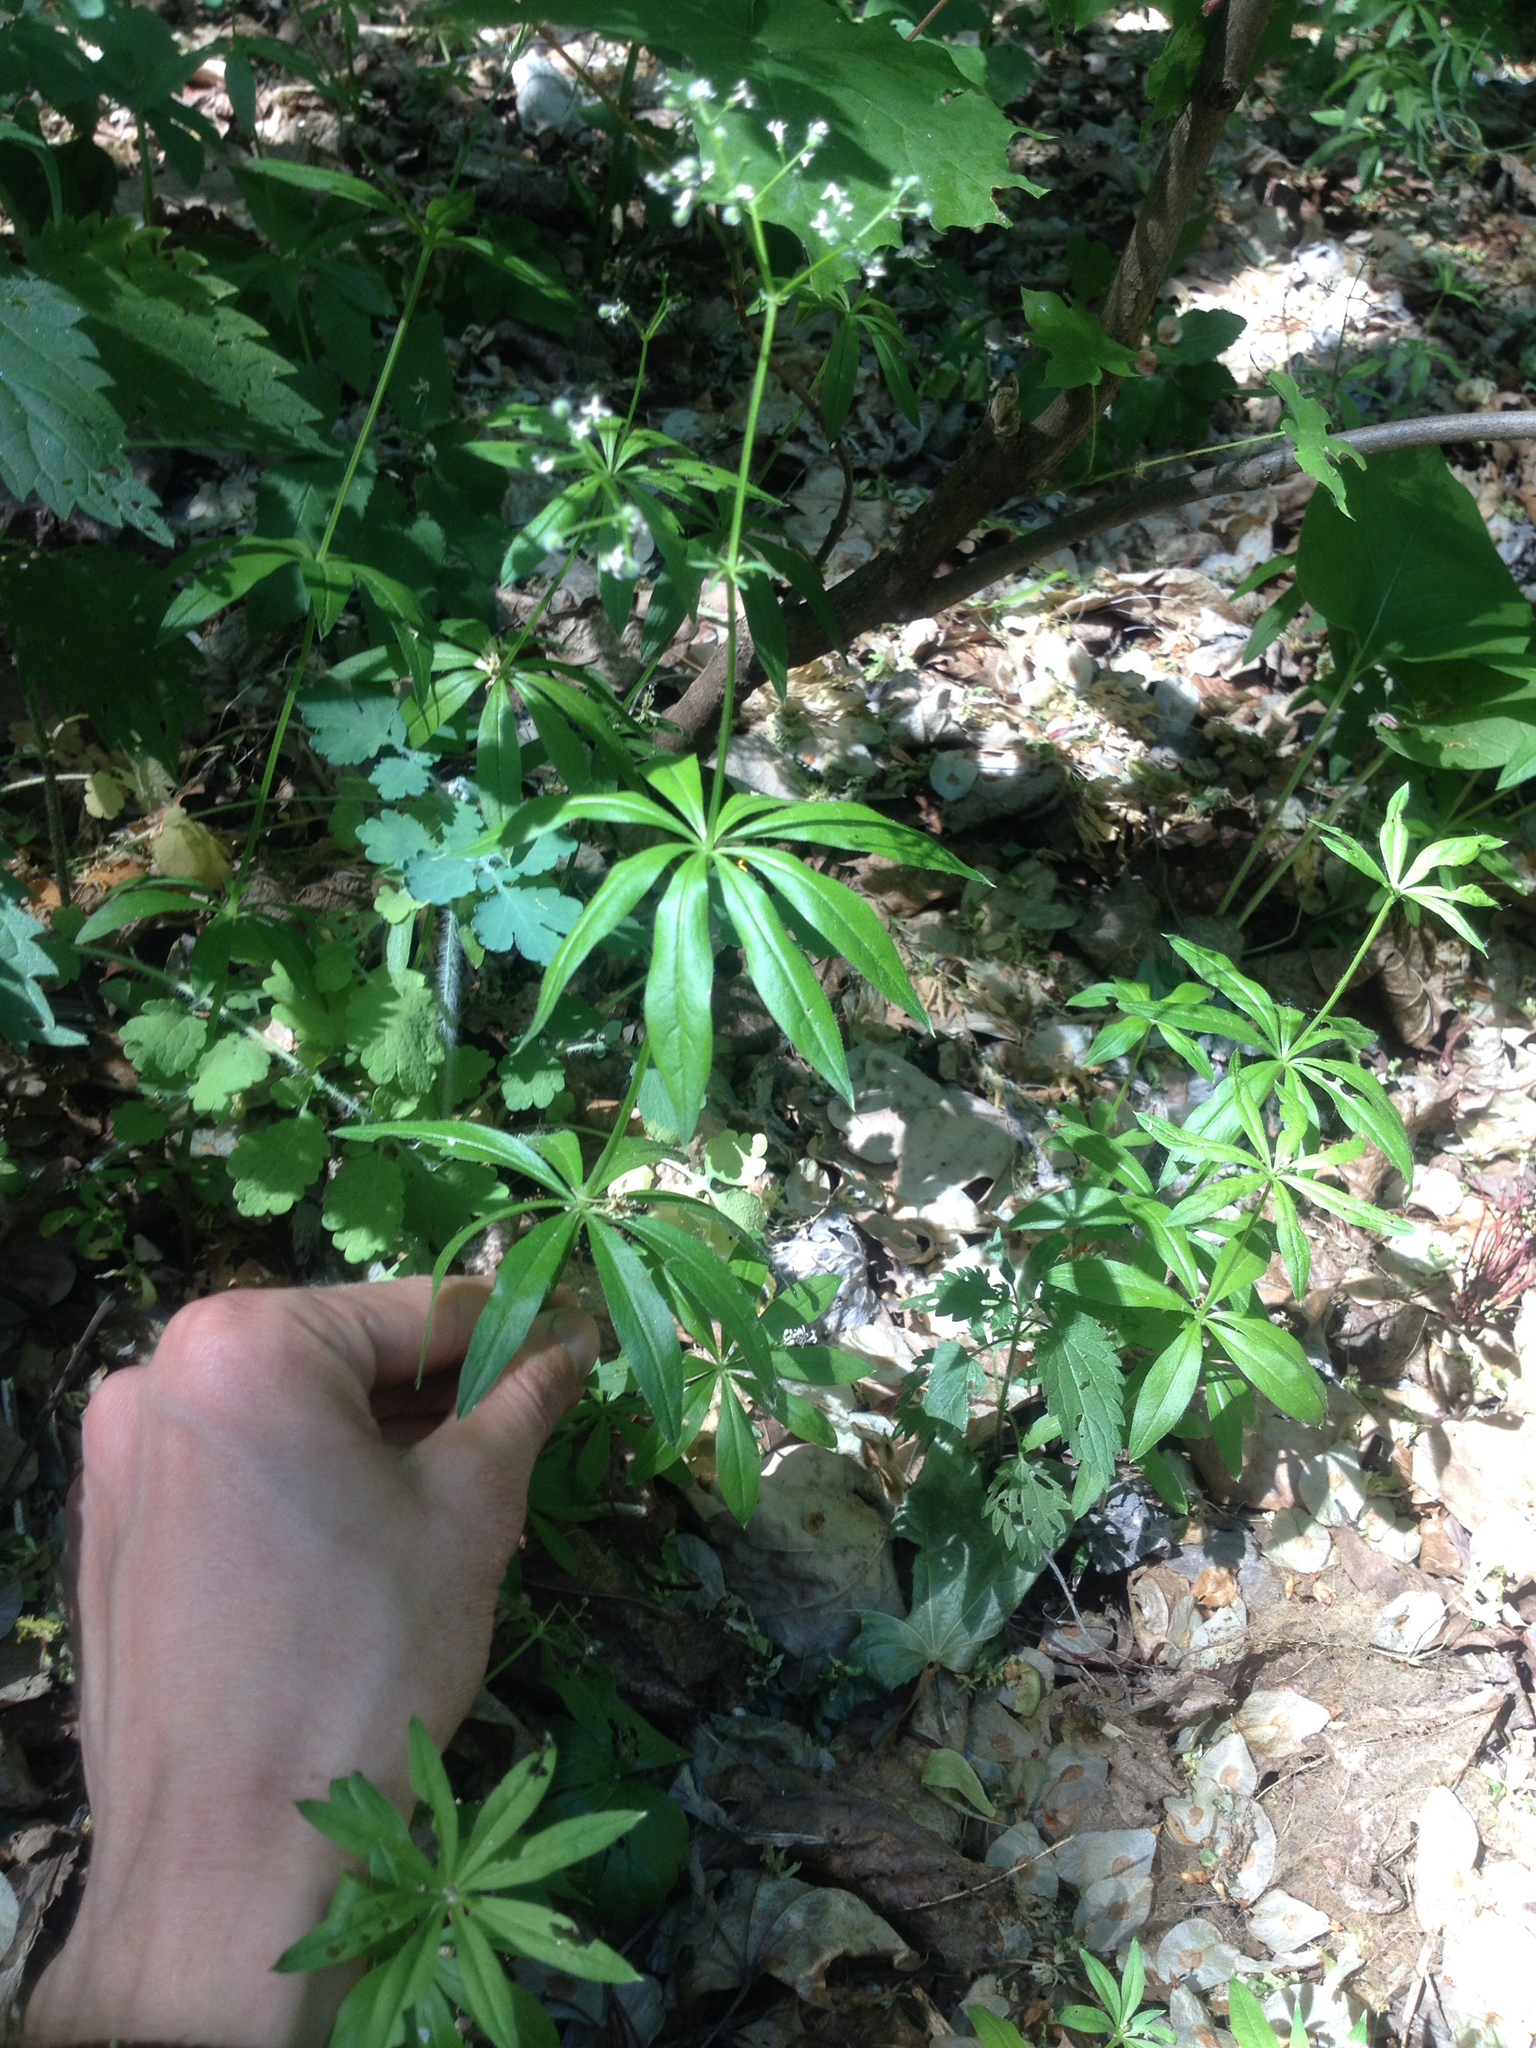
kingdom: Plantae
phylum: Tracheophyta
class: Magnoliopsida
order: Gentianales
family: Rubiaceae
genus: Galium
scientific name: Galium odoratum
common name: Sweet woodruff
